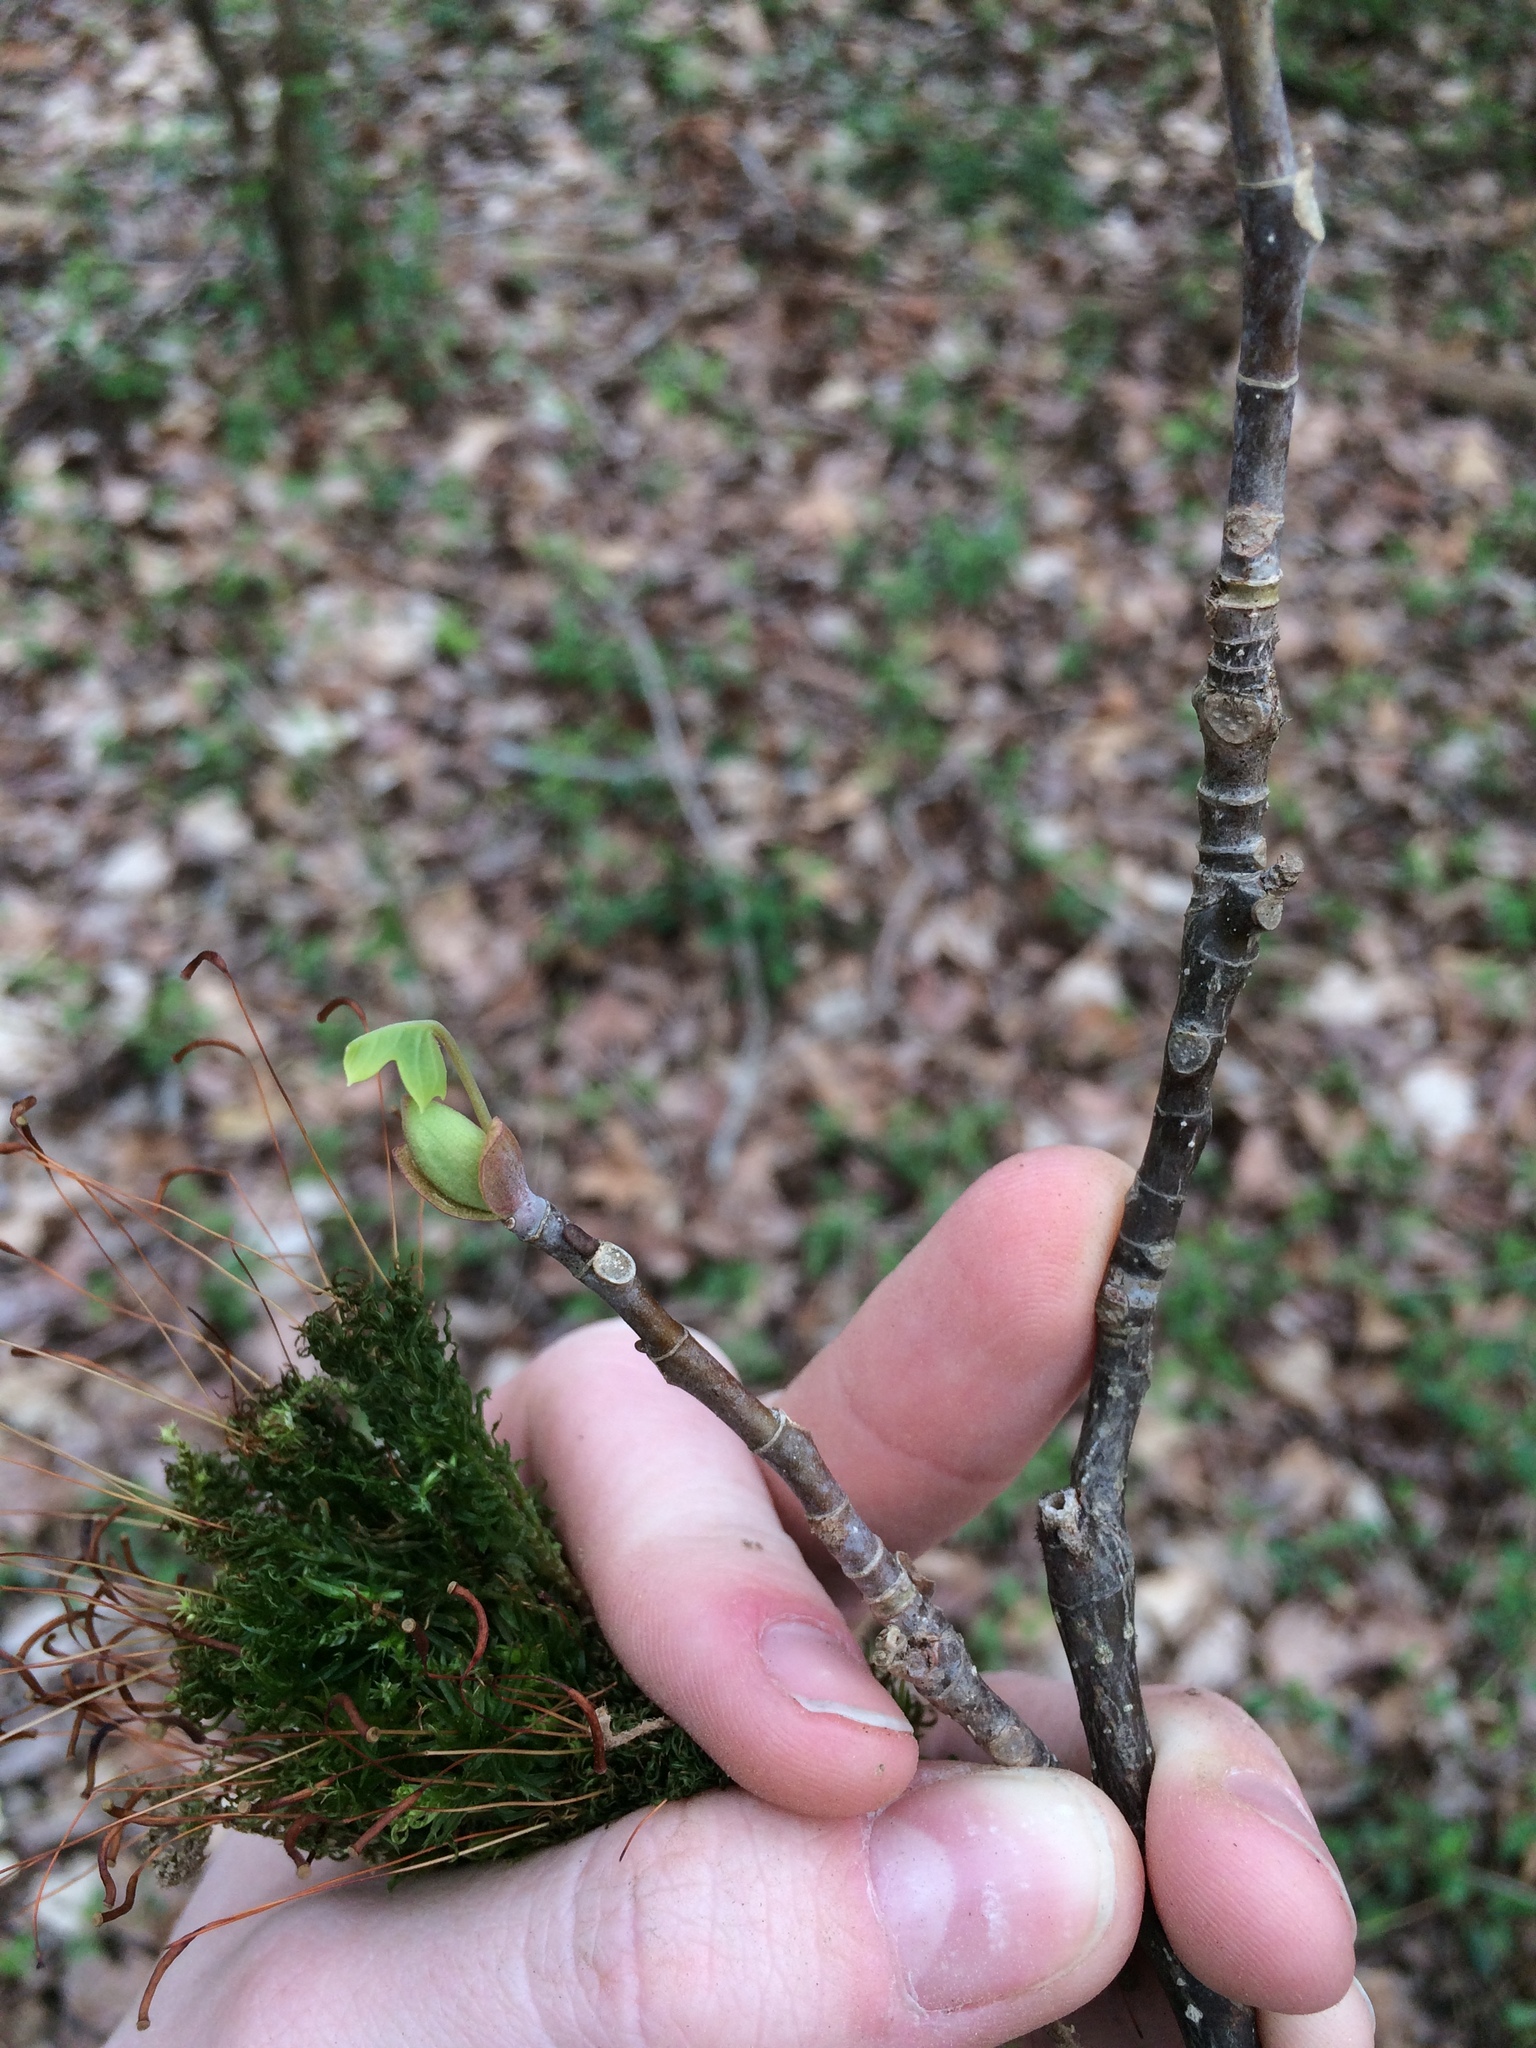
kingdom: Plantae
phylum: Tracheophyta
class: Magnoliopsida
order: Magnoliales
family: Magnoliaceae
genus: Liriodendron
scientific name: Liriodendron tulipifera
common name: Tulip tree
